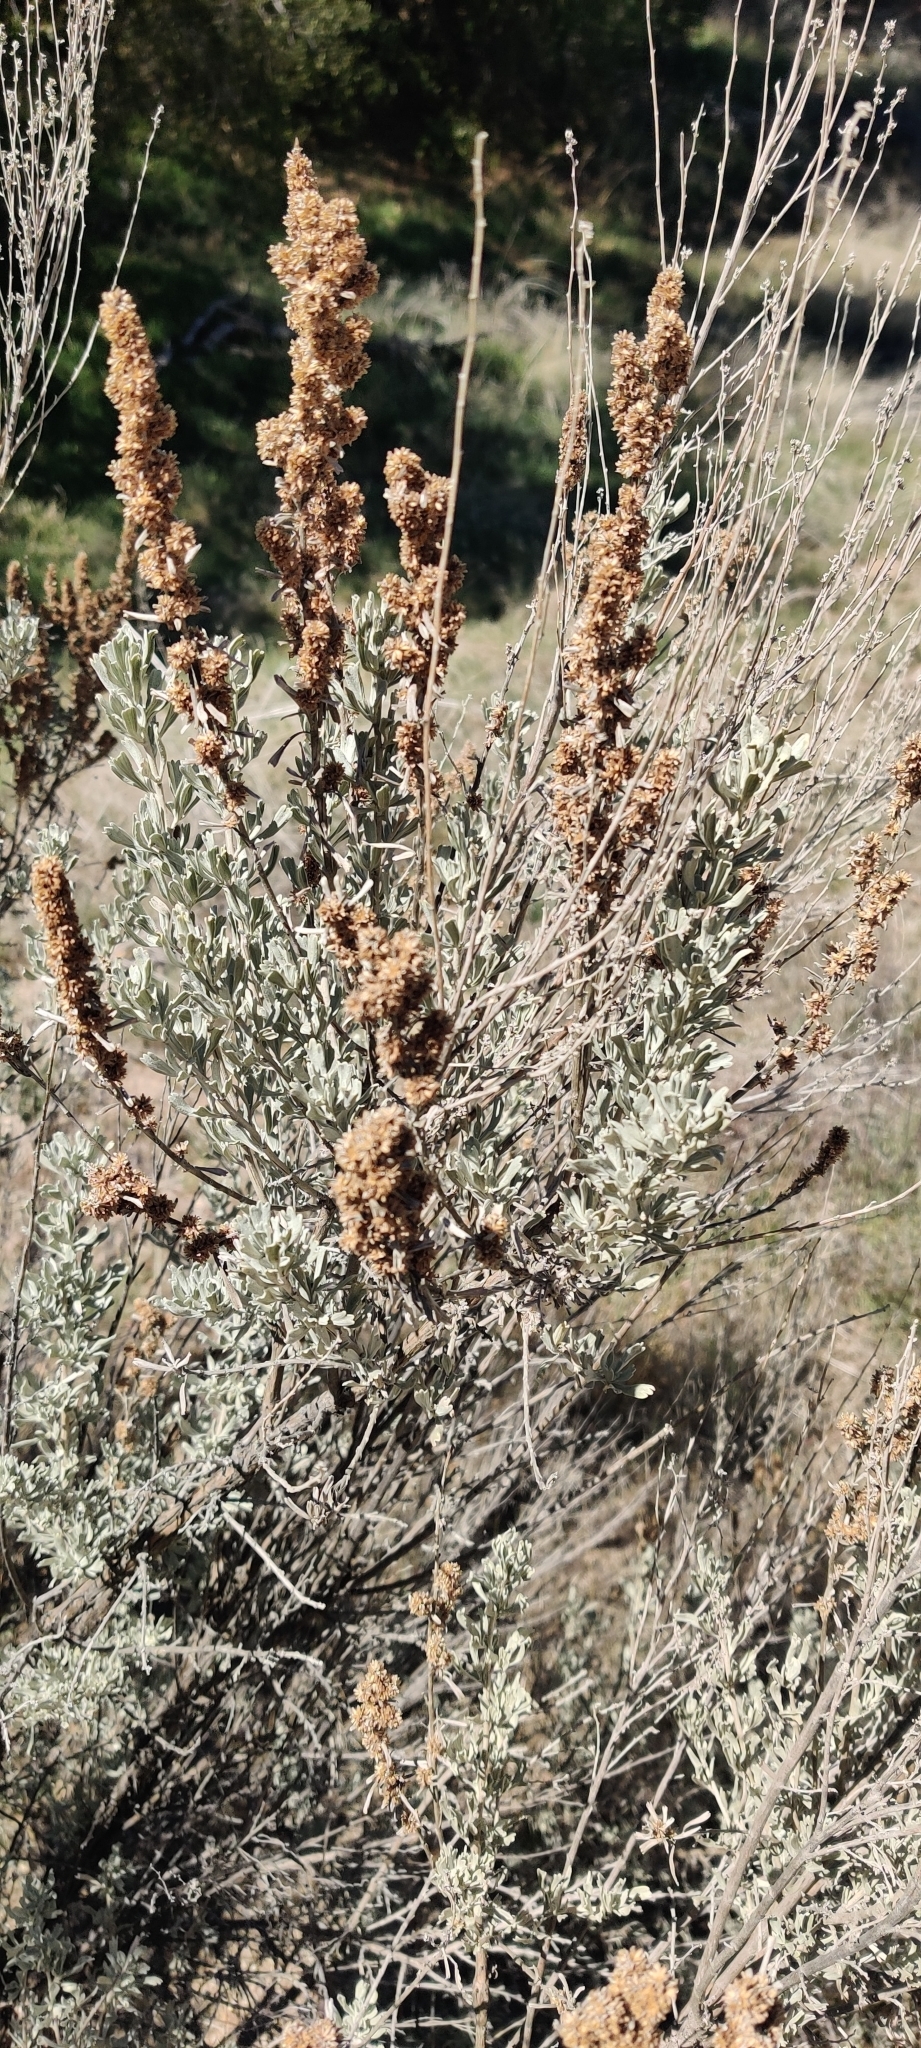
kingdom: Plantae
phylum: Tracheophyta
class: Magnoliopsida
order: Asterales
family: Asteraceae
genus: Artemisia
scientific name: Artemisia tridentata
